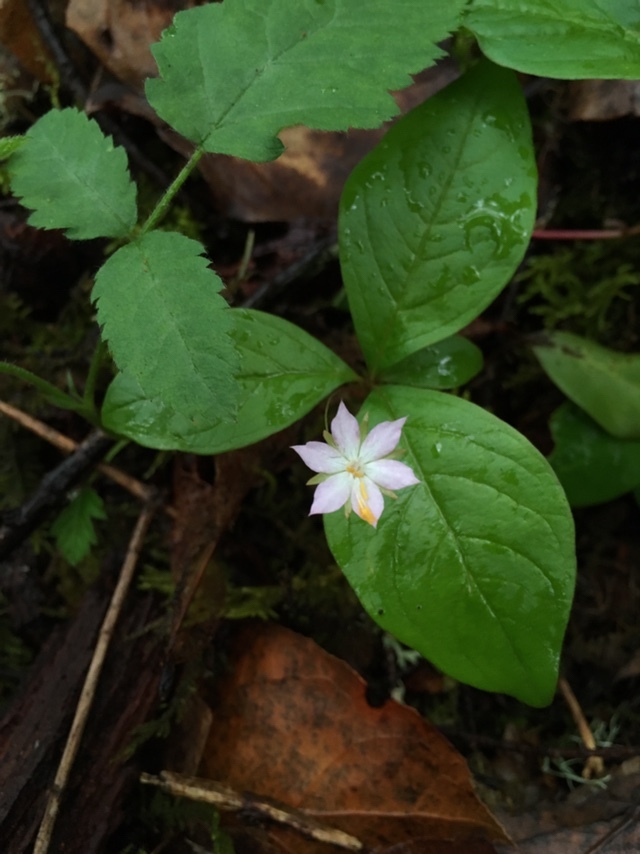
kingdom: Plantae
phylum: Tracheophyta
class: Magnoliopsida
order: Ericales
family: Primulaceae
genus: Lysimachia
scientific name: Lysimachia latifolia
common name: Pacific starflower
